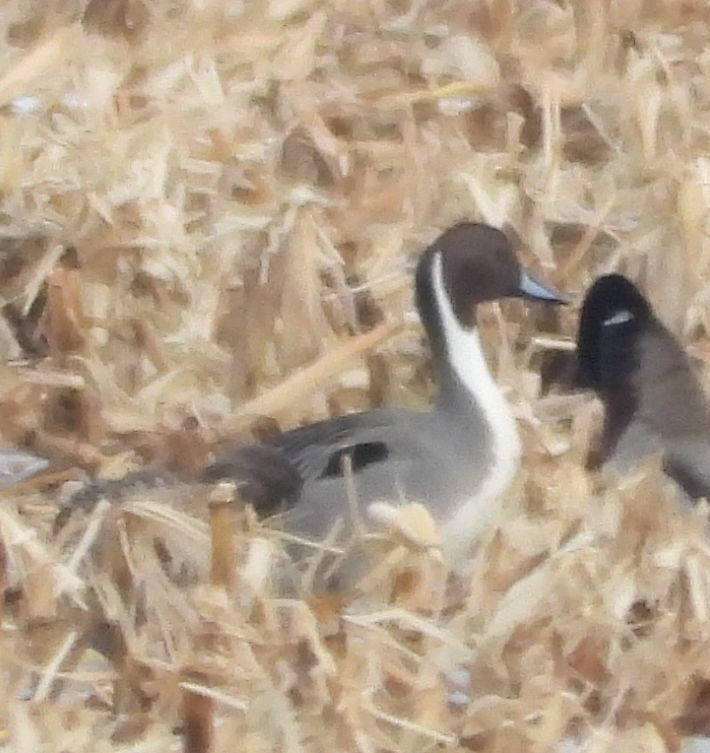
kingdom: Animalia
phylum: Chordata
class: Aves
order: Anseriformes
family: Anatidae
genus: Anas
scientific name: Anas acuta
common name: Northern pintail
